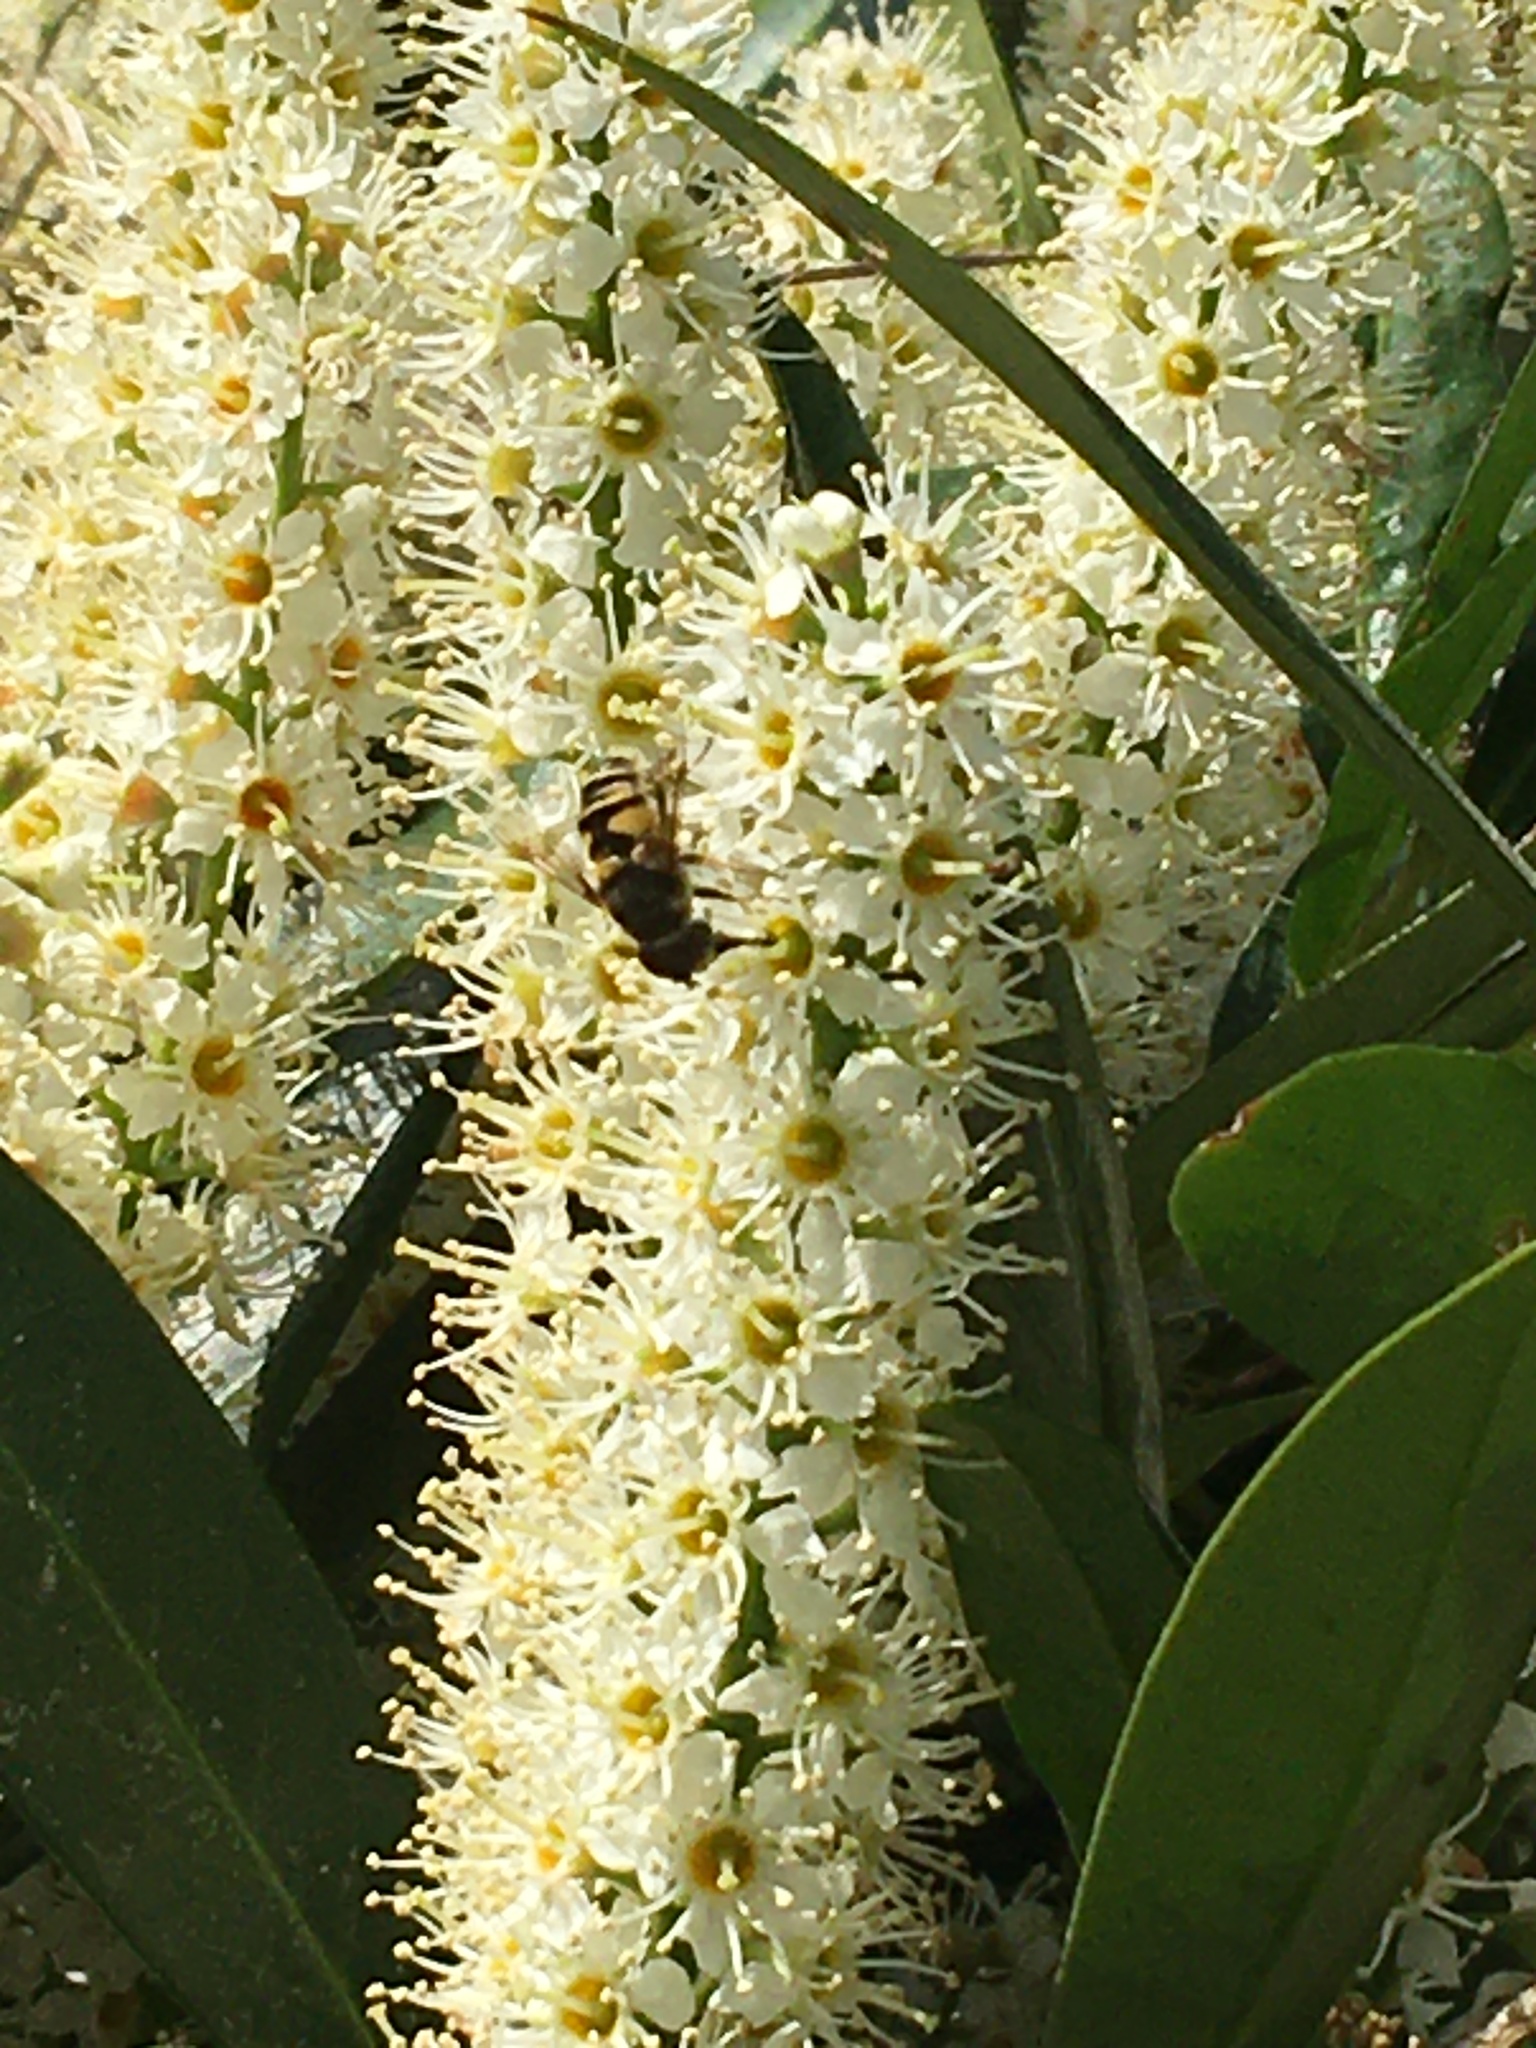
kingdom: Animalia
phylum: Arthropoda
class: Insecta
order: Diptera
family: Syrphidae
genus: Eristalis
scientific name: Eristalis transversa
